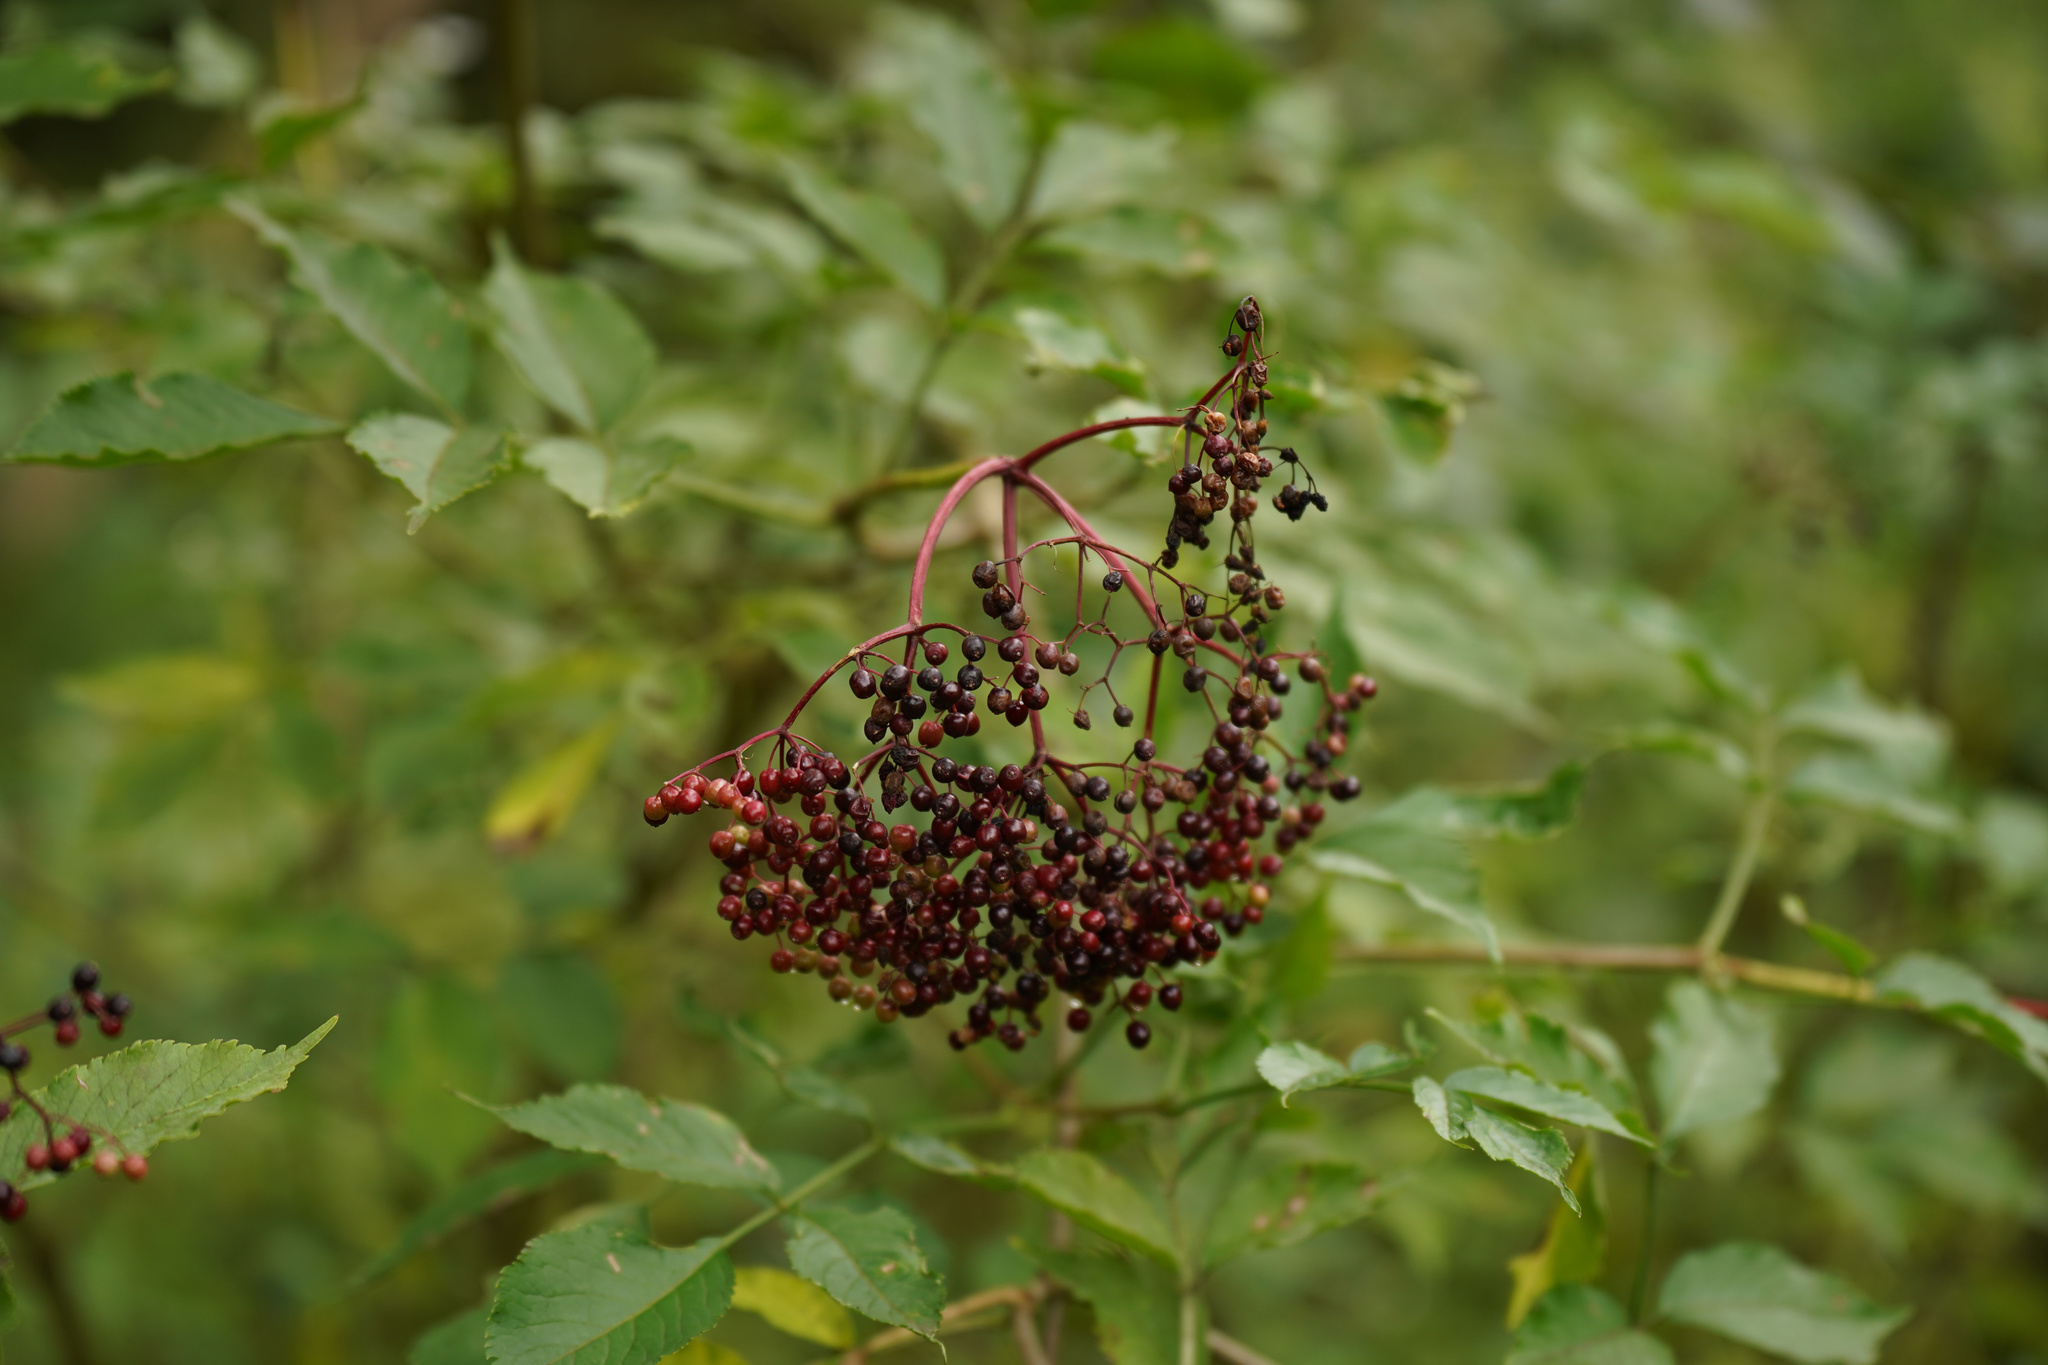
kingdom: Plantae
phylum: Tracheophyta
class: Magnoliopsida
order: Dipsacales
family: Viburnaceae
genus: Sambucus
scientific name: Sambucus nigra
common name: Elder
